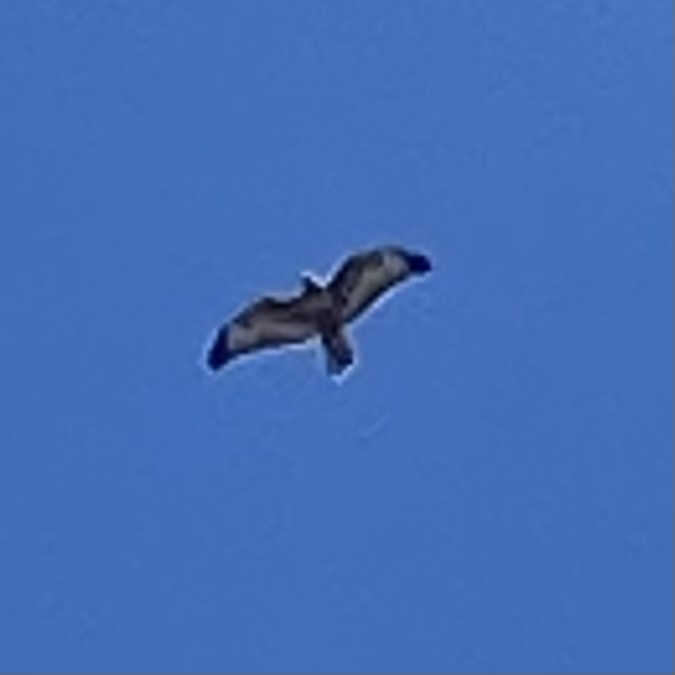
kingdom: Animalia
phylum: Chordata
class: Aves
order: Accipitriformes
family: Accipitridae
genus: Buteo
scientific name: Buteo jamaicensis
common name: Red-tailed hawk
